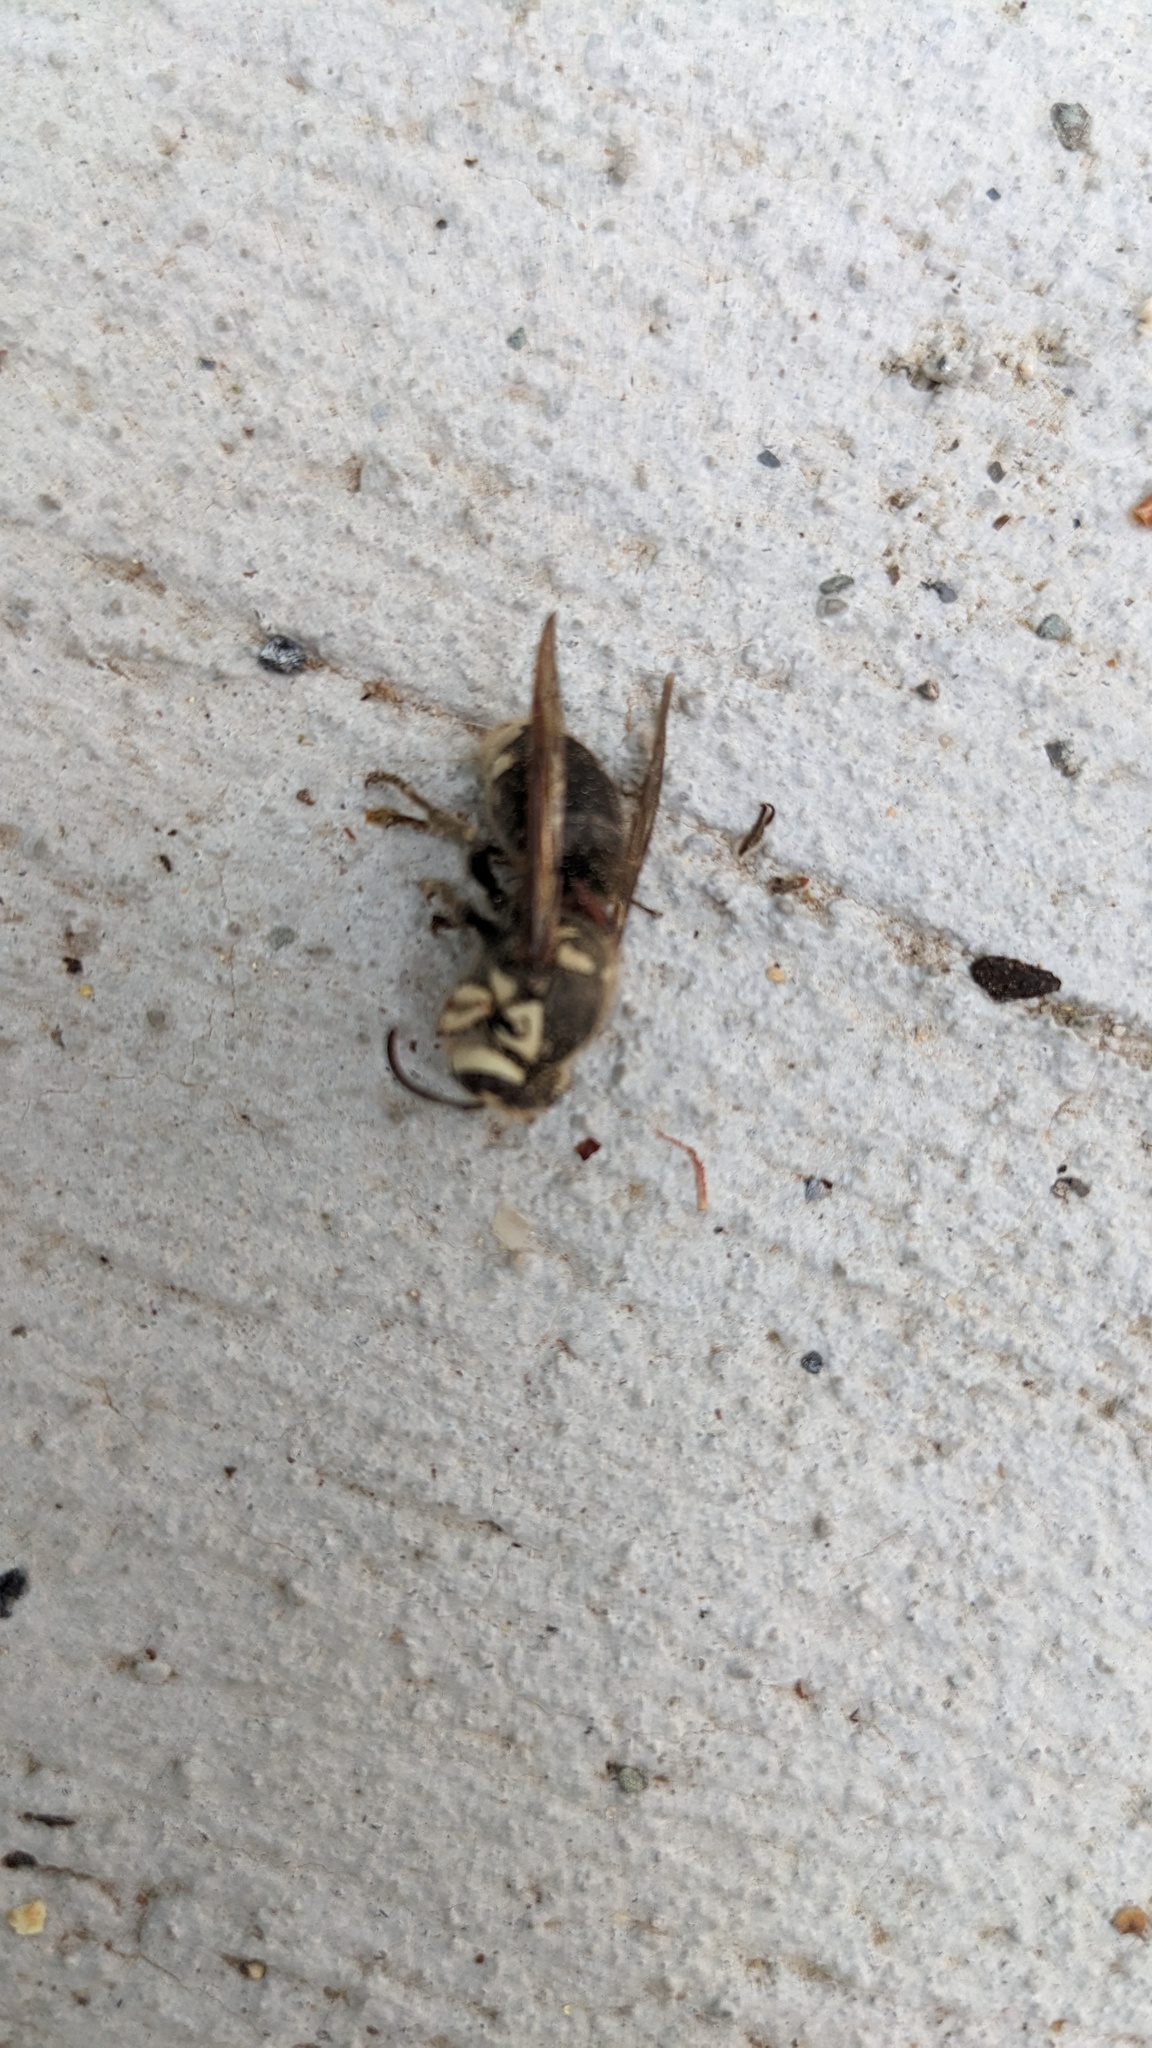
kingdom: Animalia
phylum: Arthropoda
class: Insecta
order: Hymenoptera
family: Vespidae
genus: Dolichovespula
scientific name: Dolichovespula maculata
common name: Bald-faced hornet
